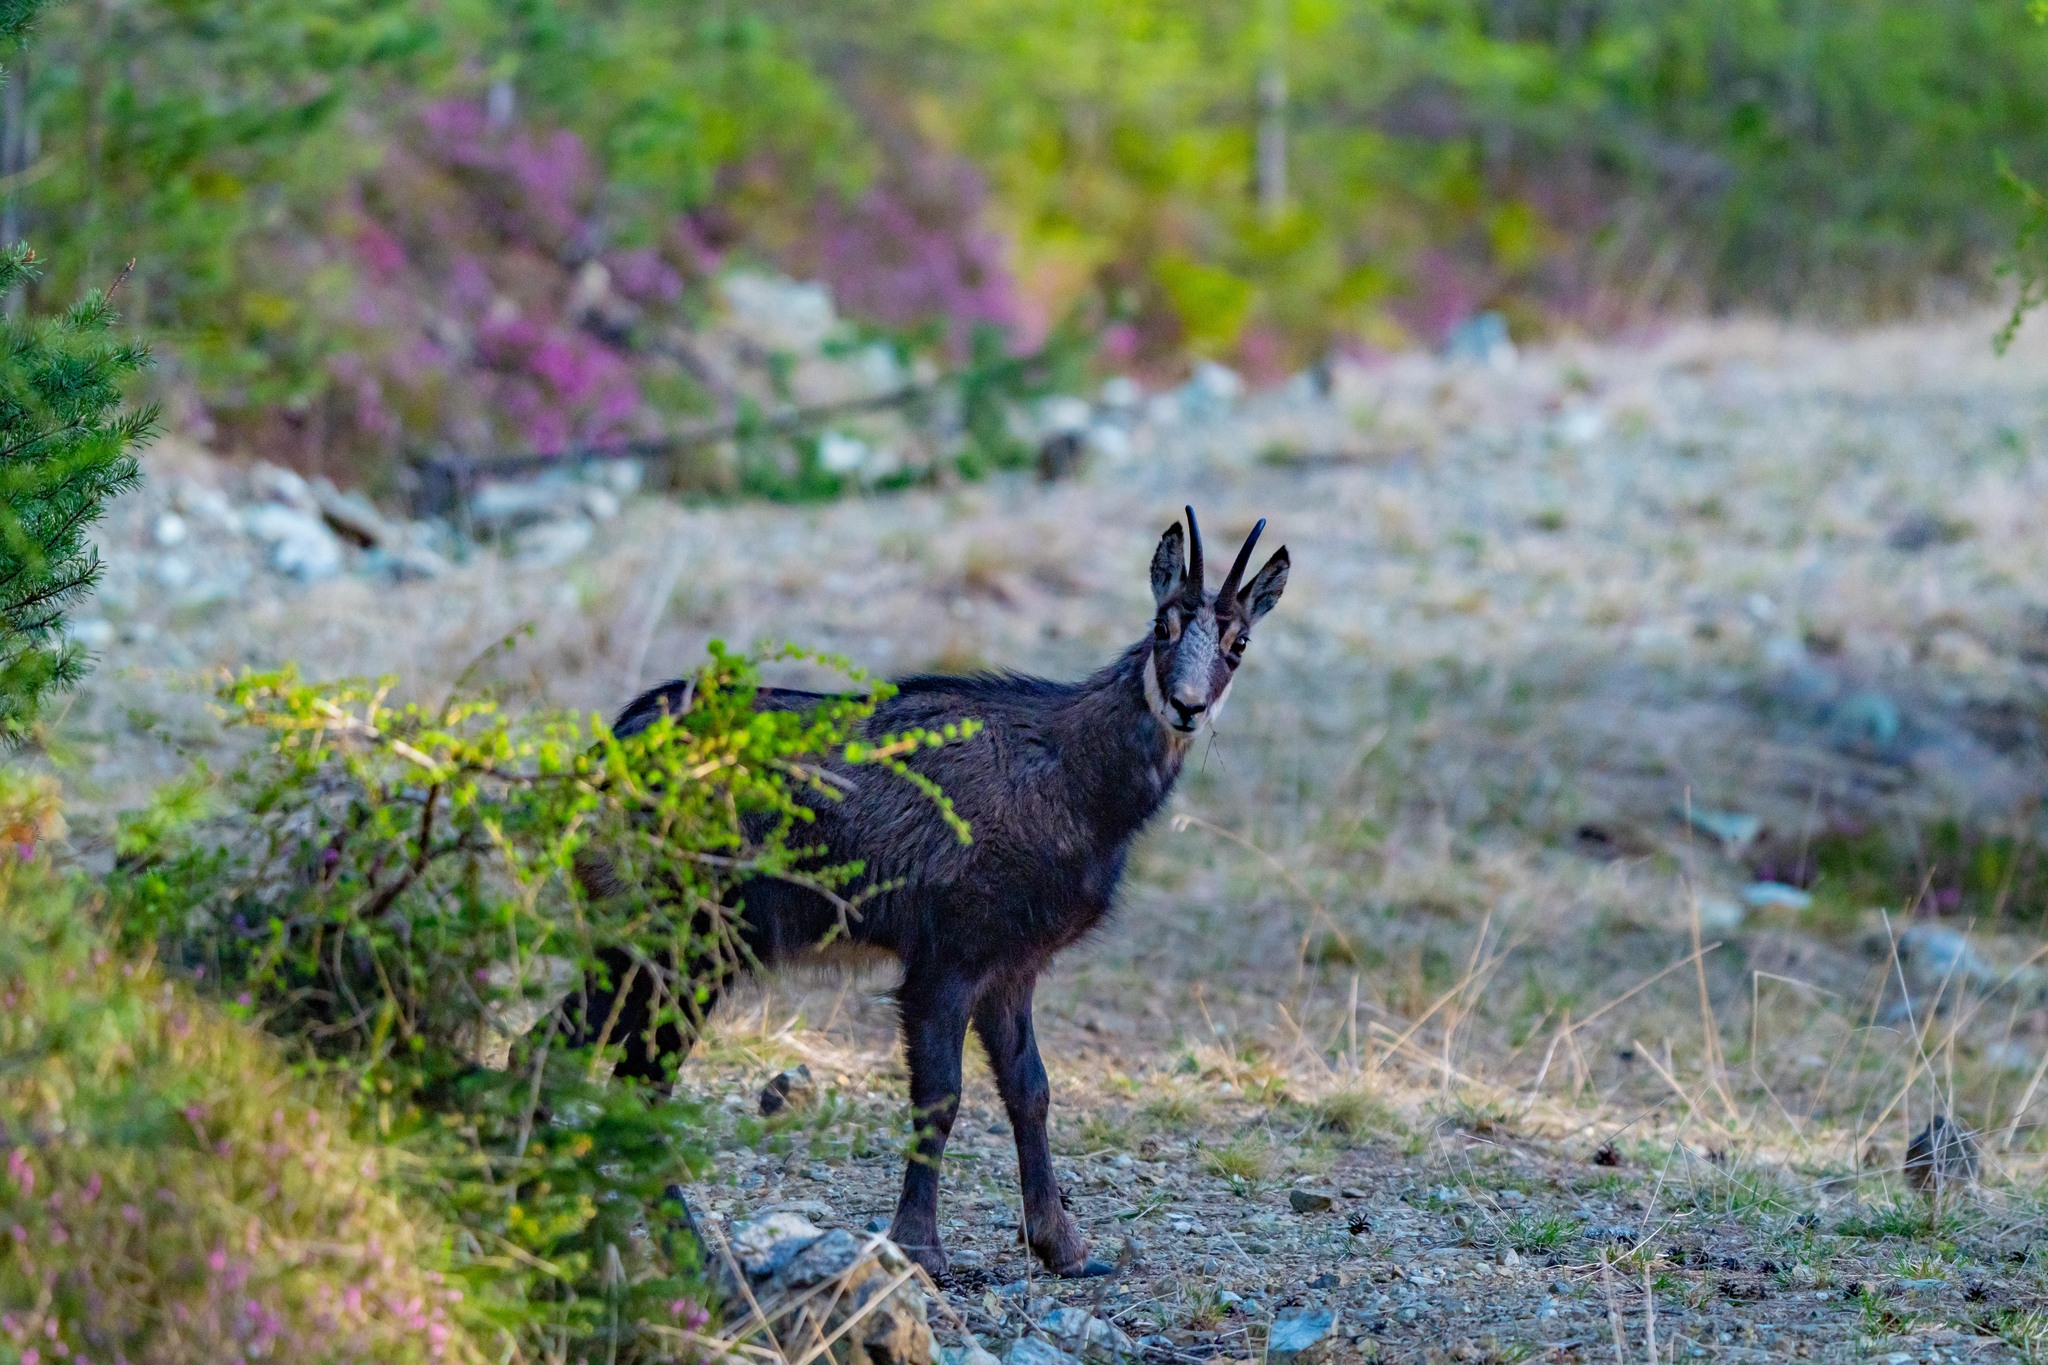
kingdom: Animalia
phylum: Chordata
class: Mammalia
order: Artiodactyla
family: Bovidae
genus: Rupicapra
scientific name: Rupicapra rupicapra
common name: Chamois
